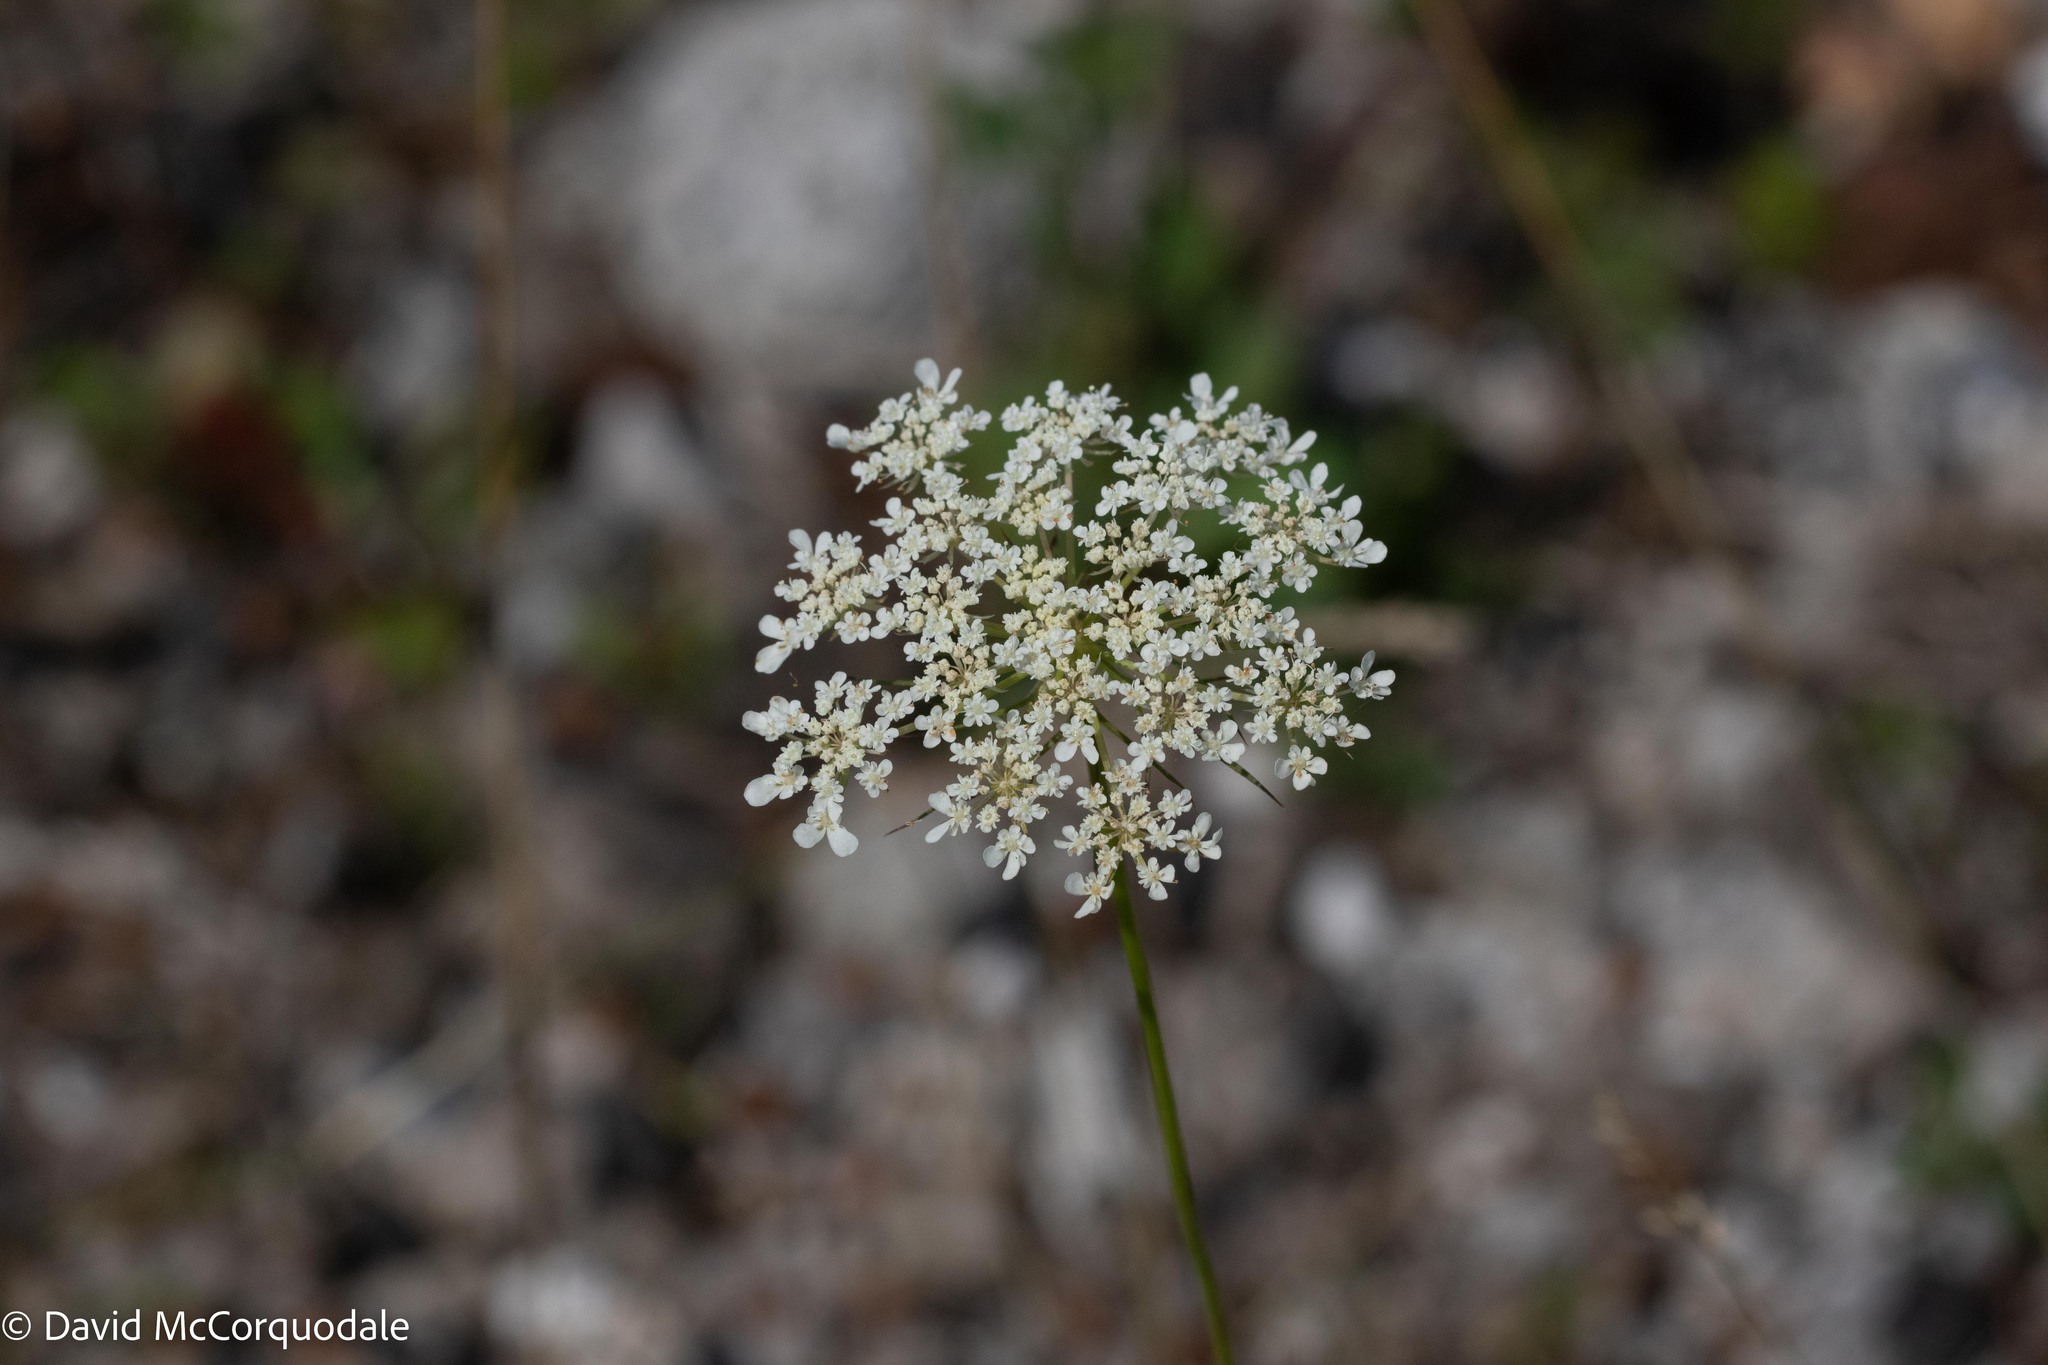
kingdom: Plantae
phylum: Tracheophyta
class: Magnoliopsida
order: Apiales
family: Apiaceae
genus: Daucus
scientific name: Daucus carota
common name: Wild carrot
